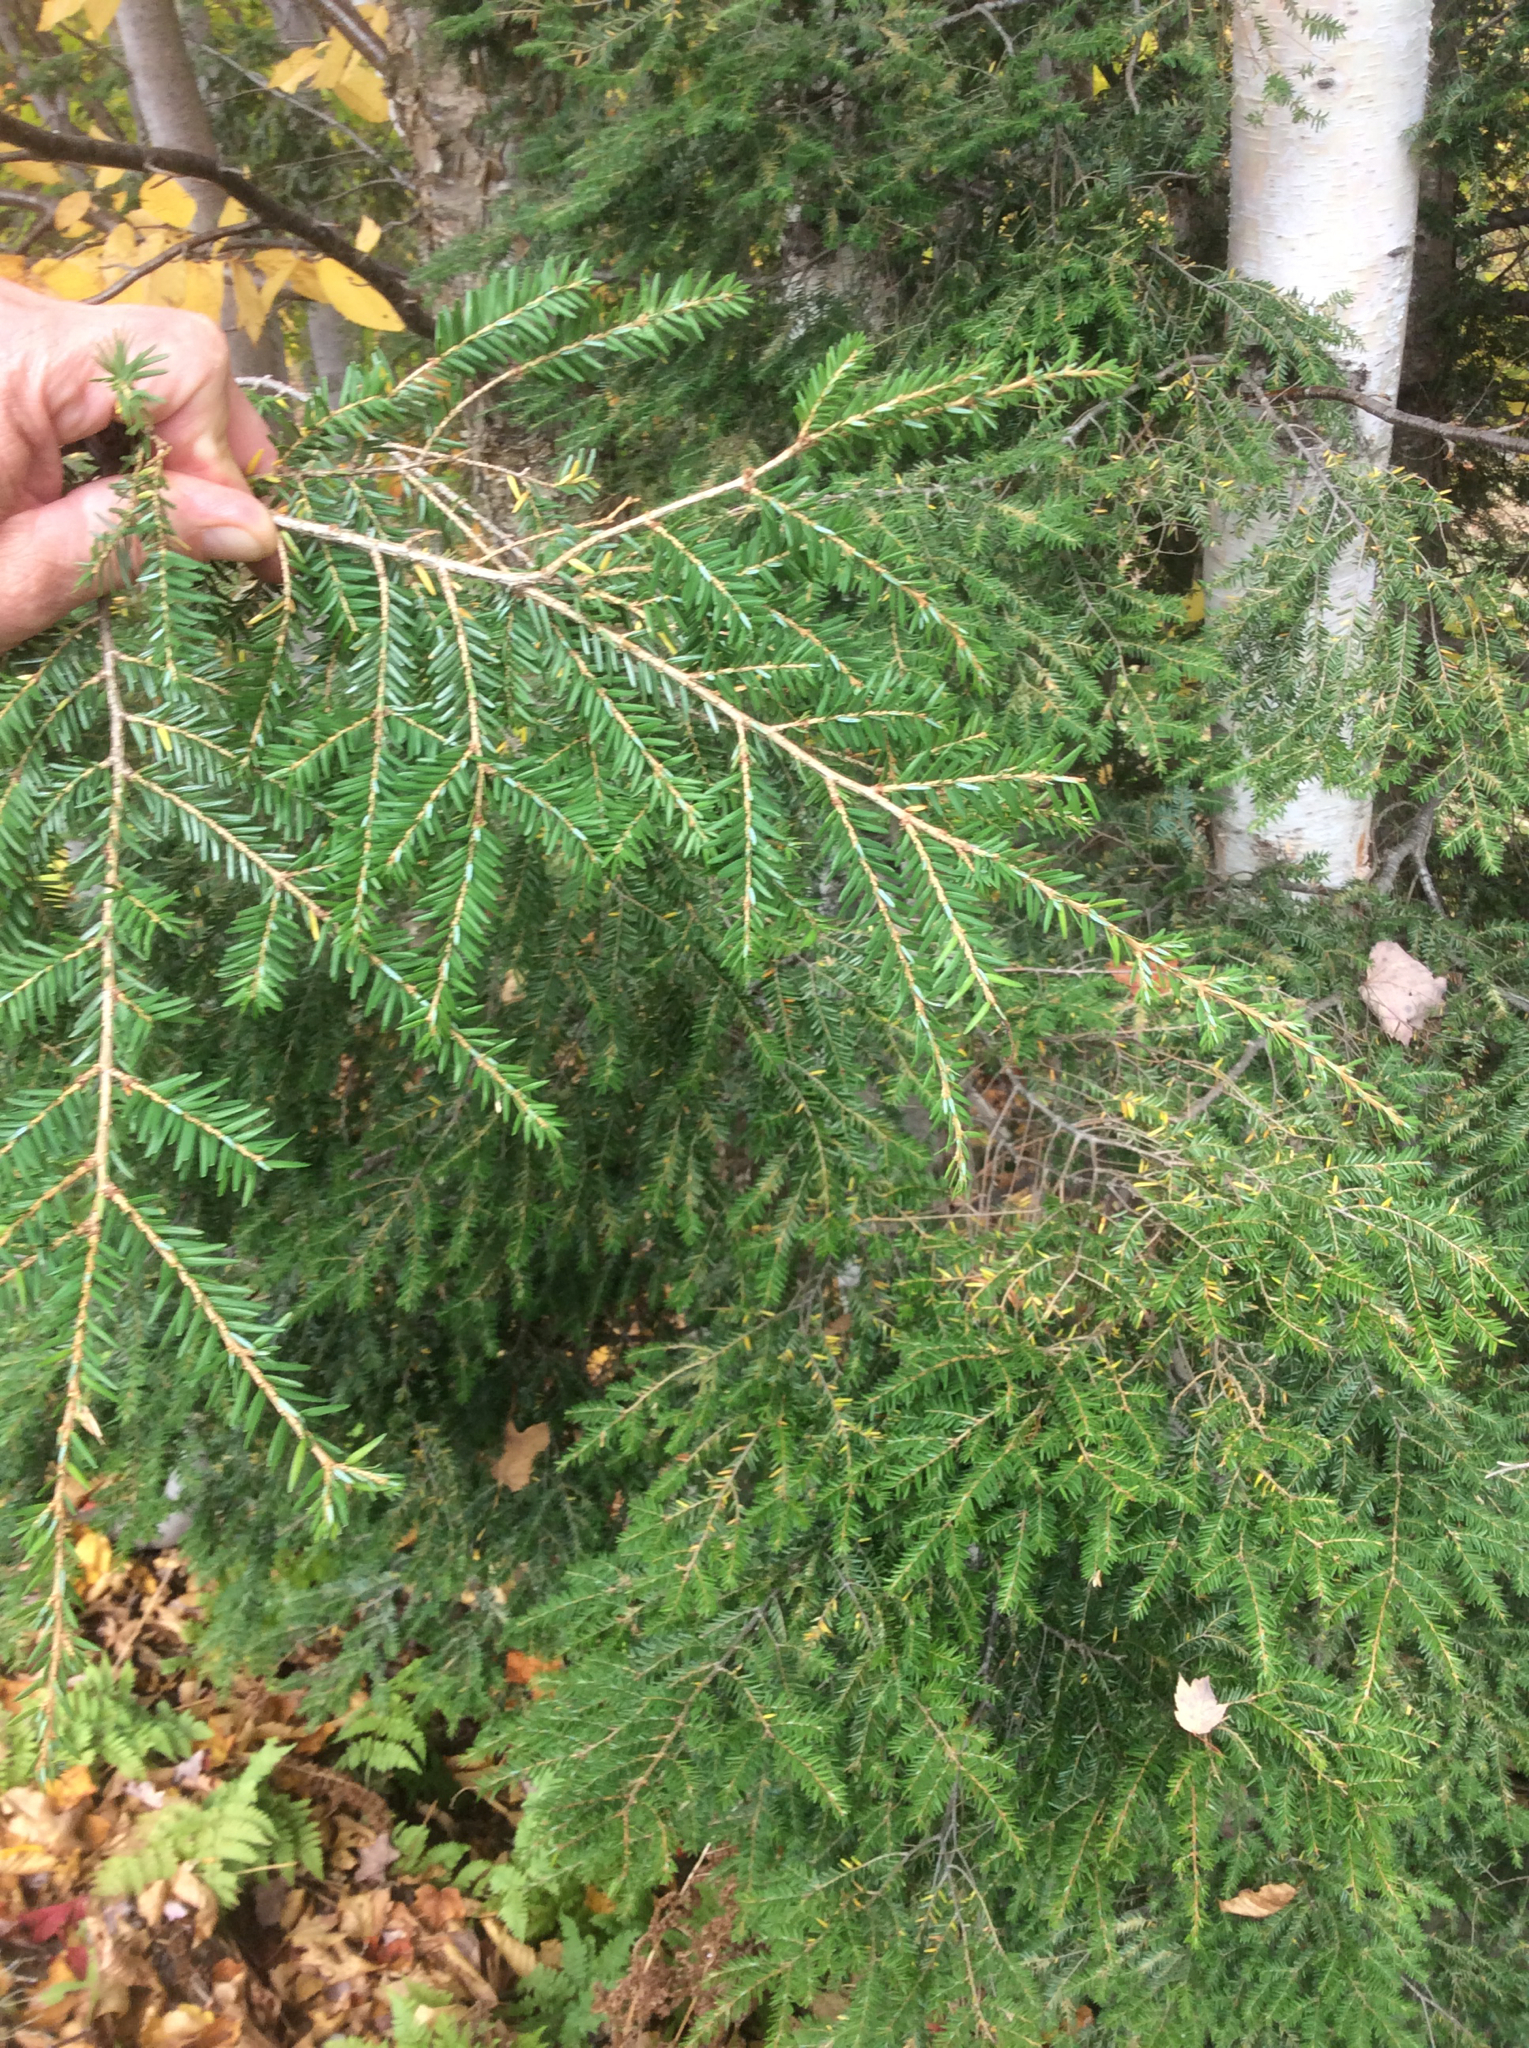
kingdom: Plantae
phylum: Tracheophyta
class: Pinopsida
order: Pinales
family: Pinaceae
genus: Tsuga
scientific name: Tsuga canadensis
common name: Eastern hemlock
